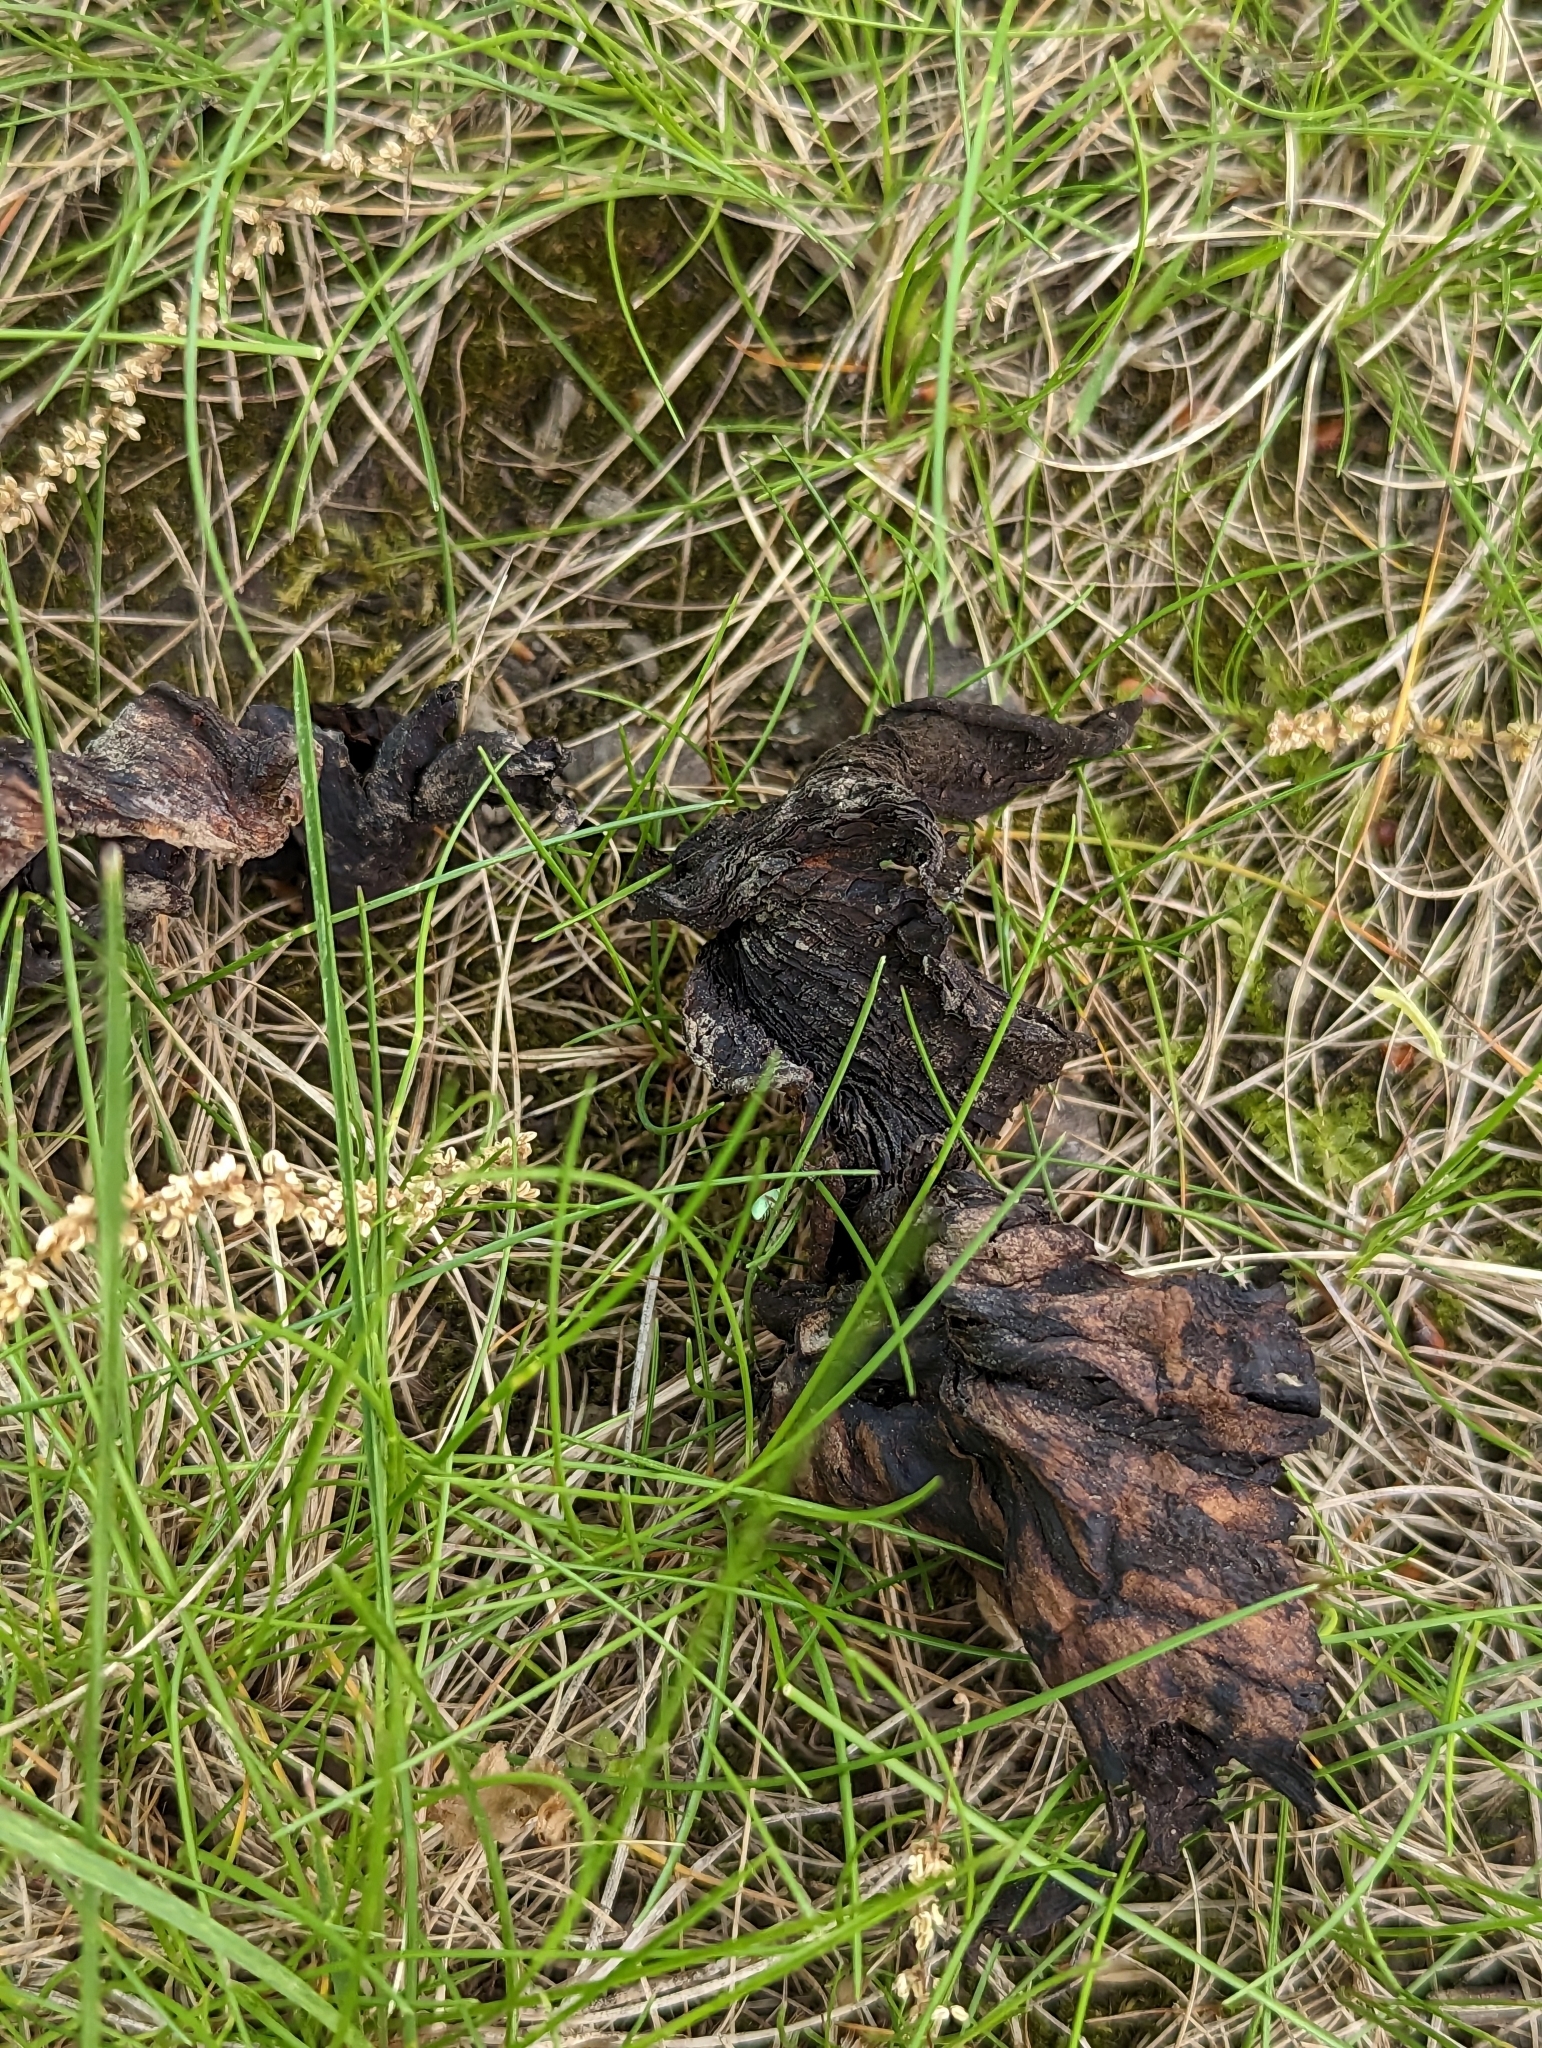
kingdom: Animalia
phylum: Arthropoda
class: Insecta
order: Coleoptera
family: Curculionidae
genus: Polydrusus
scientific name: Polydrusus impressifrons
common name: Weevil
